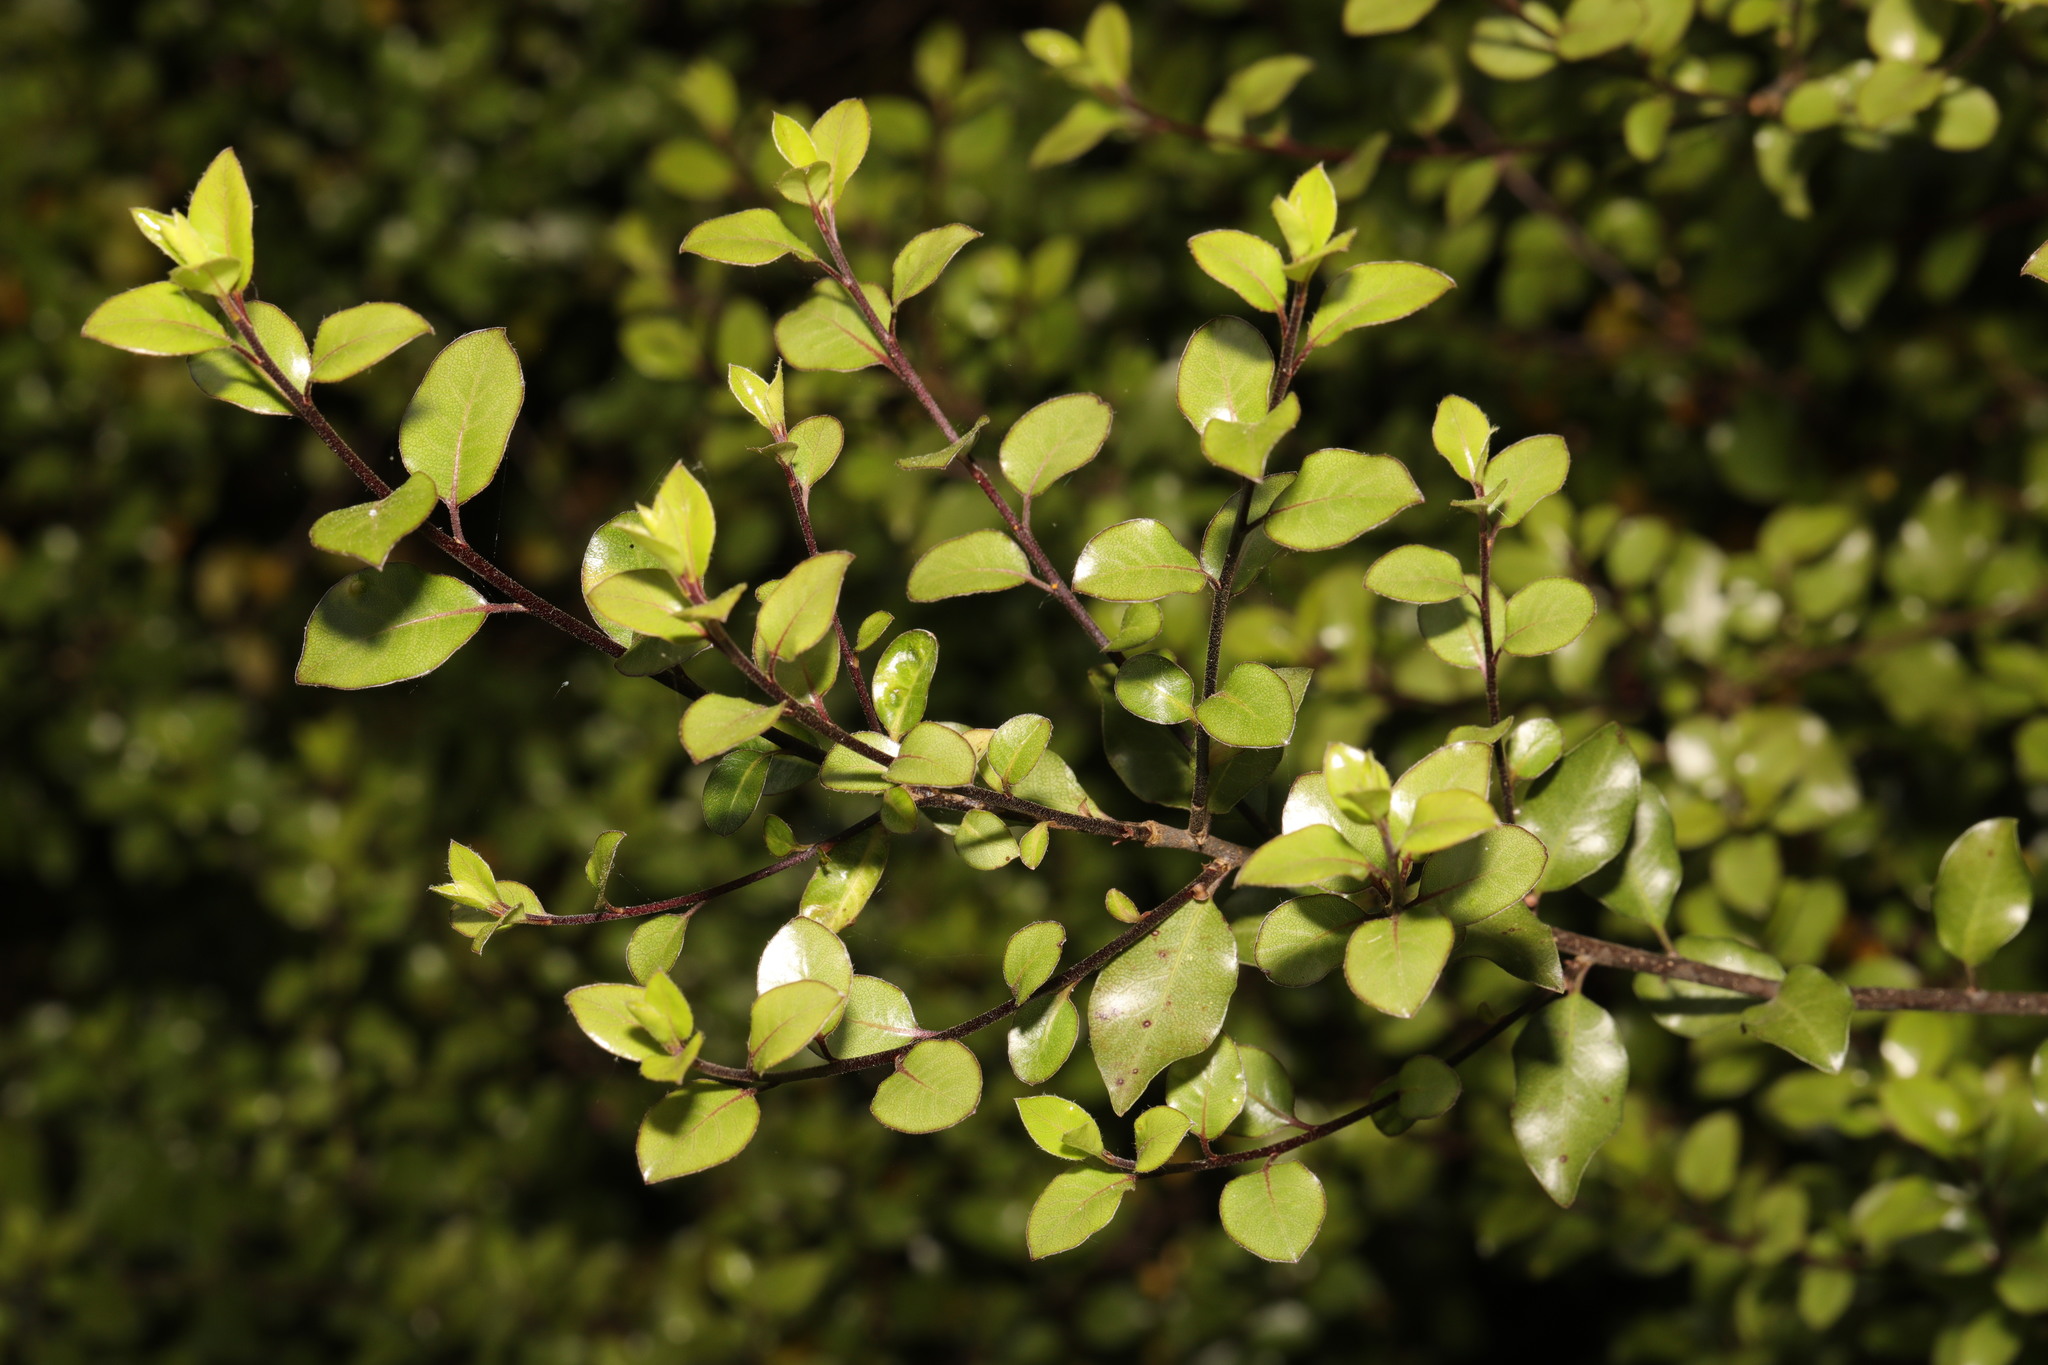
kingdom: Plantae
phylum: Tracheophyta
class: Magnoliopsida
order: Apiales
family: Pittosporaceae
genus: Pittosporum
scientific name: Pittosporum tenuifolium
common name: Kohuhu
